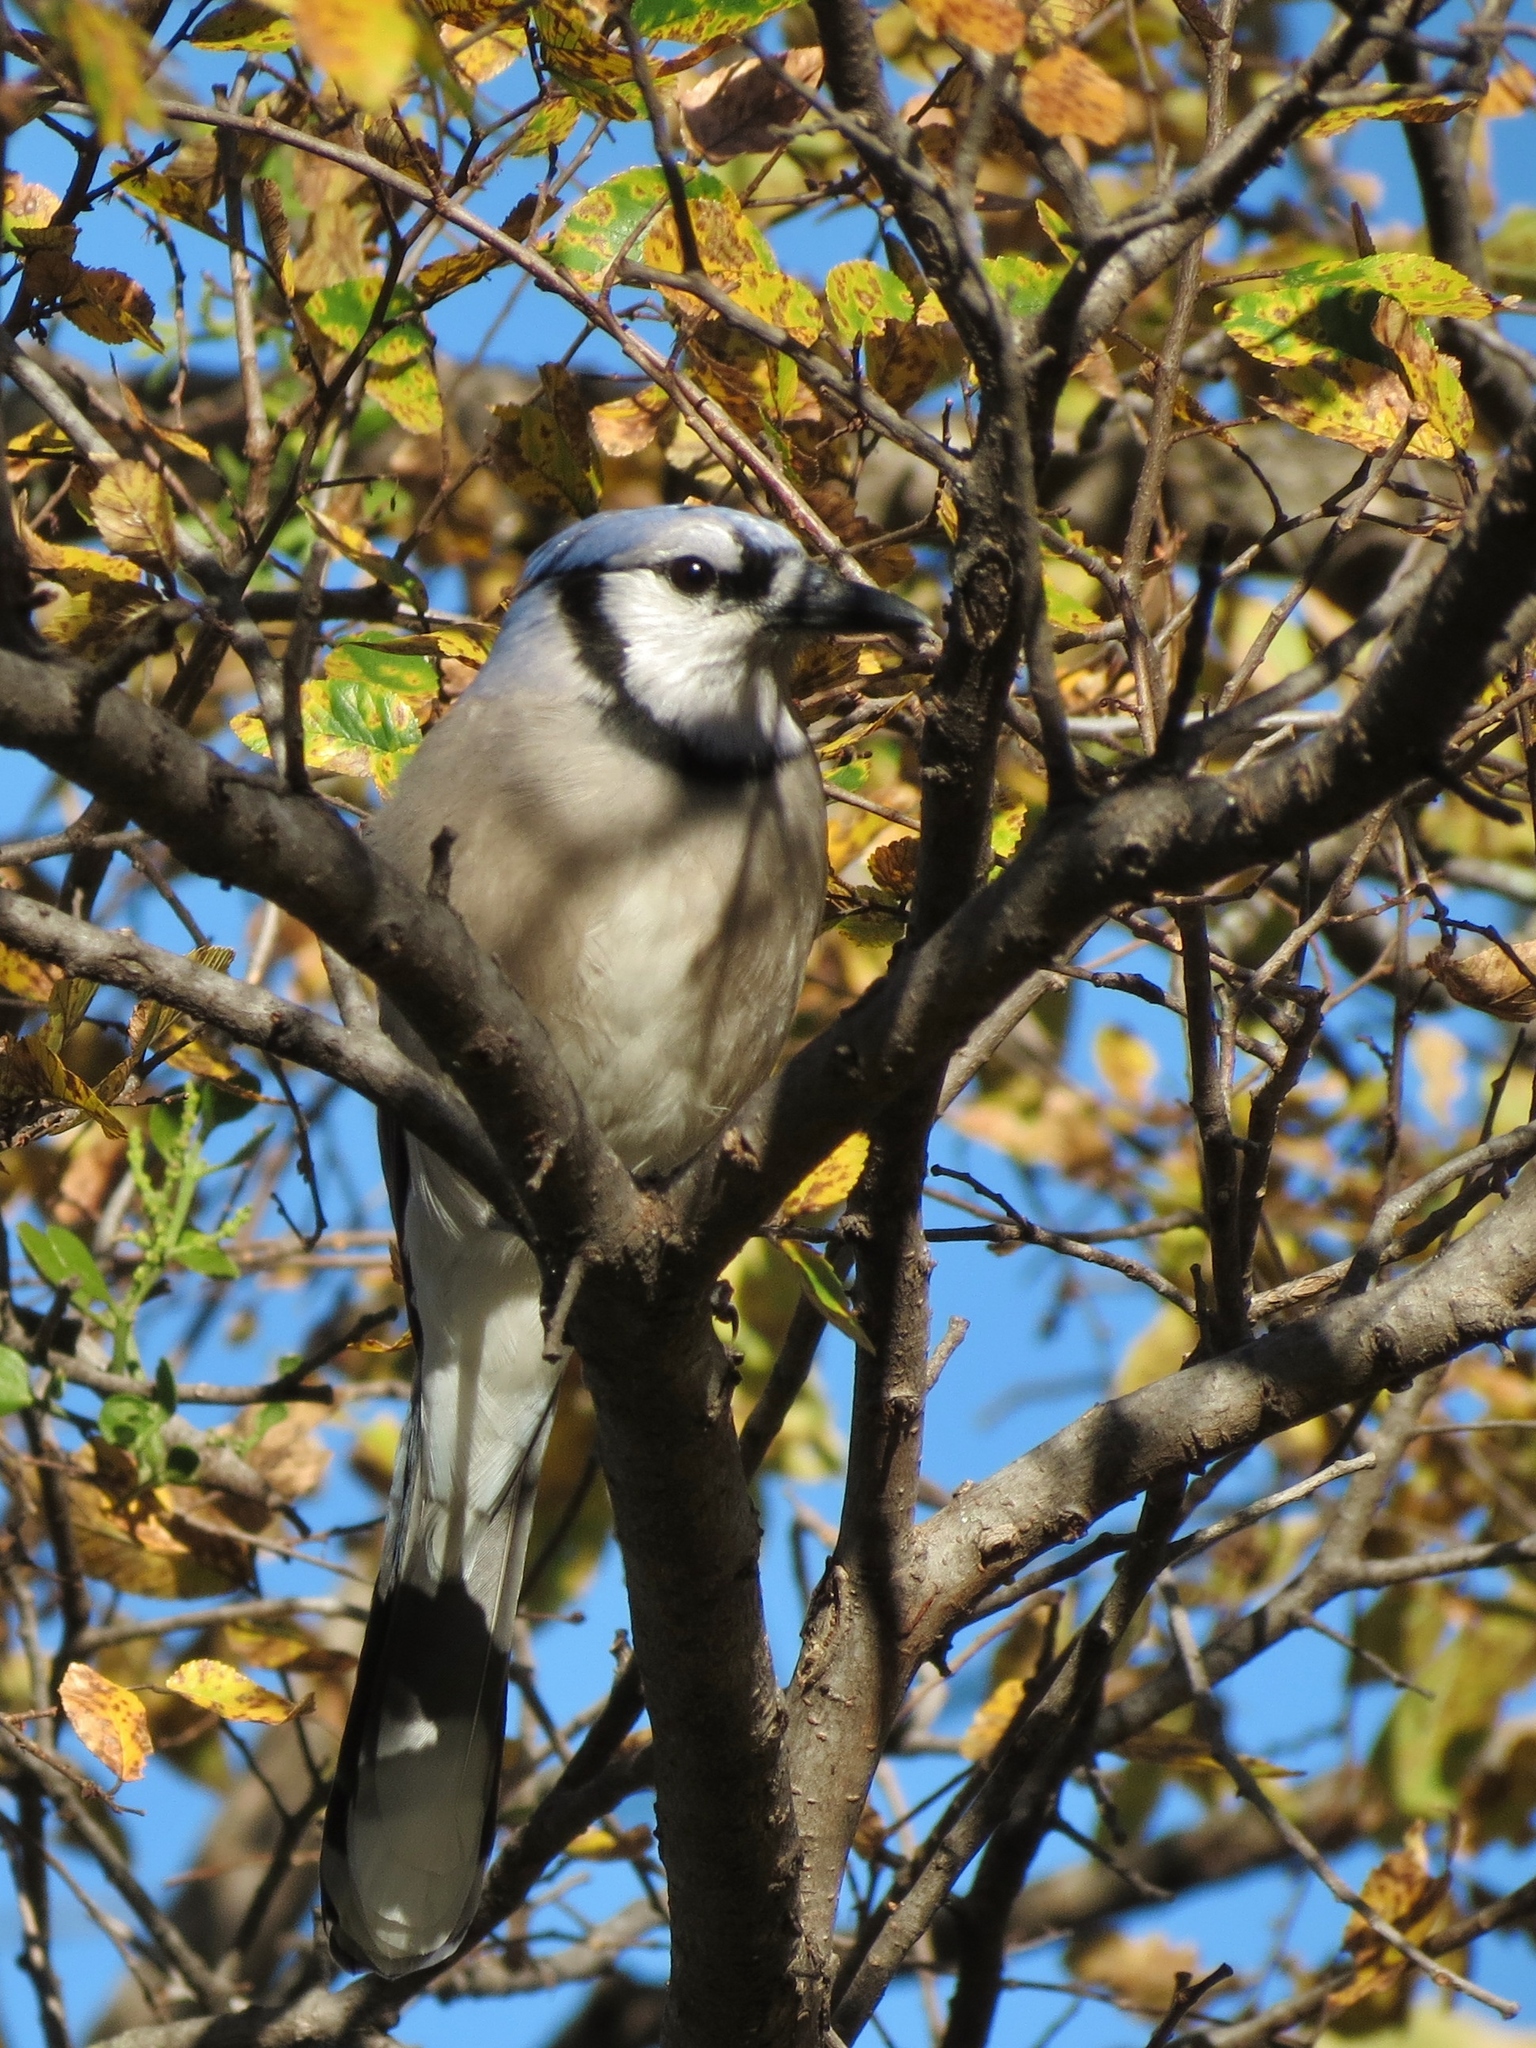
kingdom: Animalia
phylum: Chordata
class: Aves
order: Passeriformes
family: Corvidae
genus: Cyanocitta
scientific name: Cyanocitta cristata
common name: Blue jay
